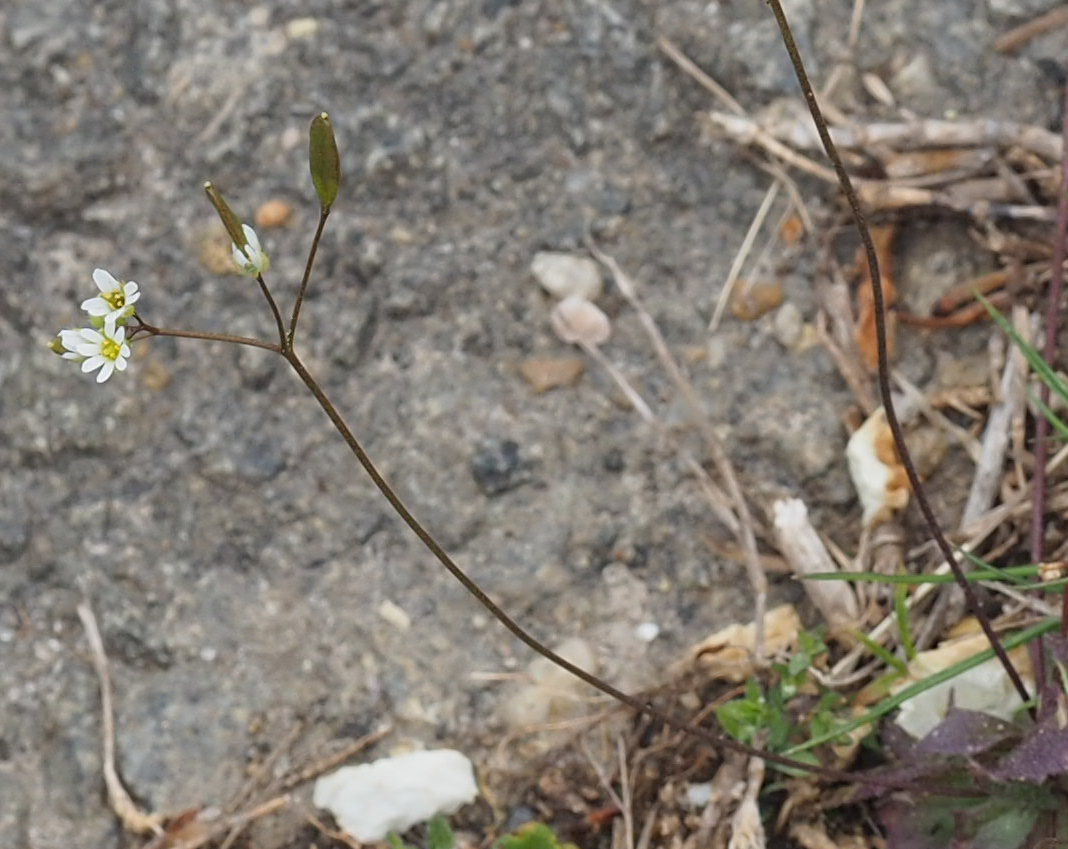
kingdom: Plantae
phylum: Tracheophyta
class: Magnoliopsida
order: Brassicales
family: Brassicaceae
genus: Draba
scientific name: Draba verna
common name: Spring draba
